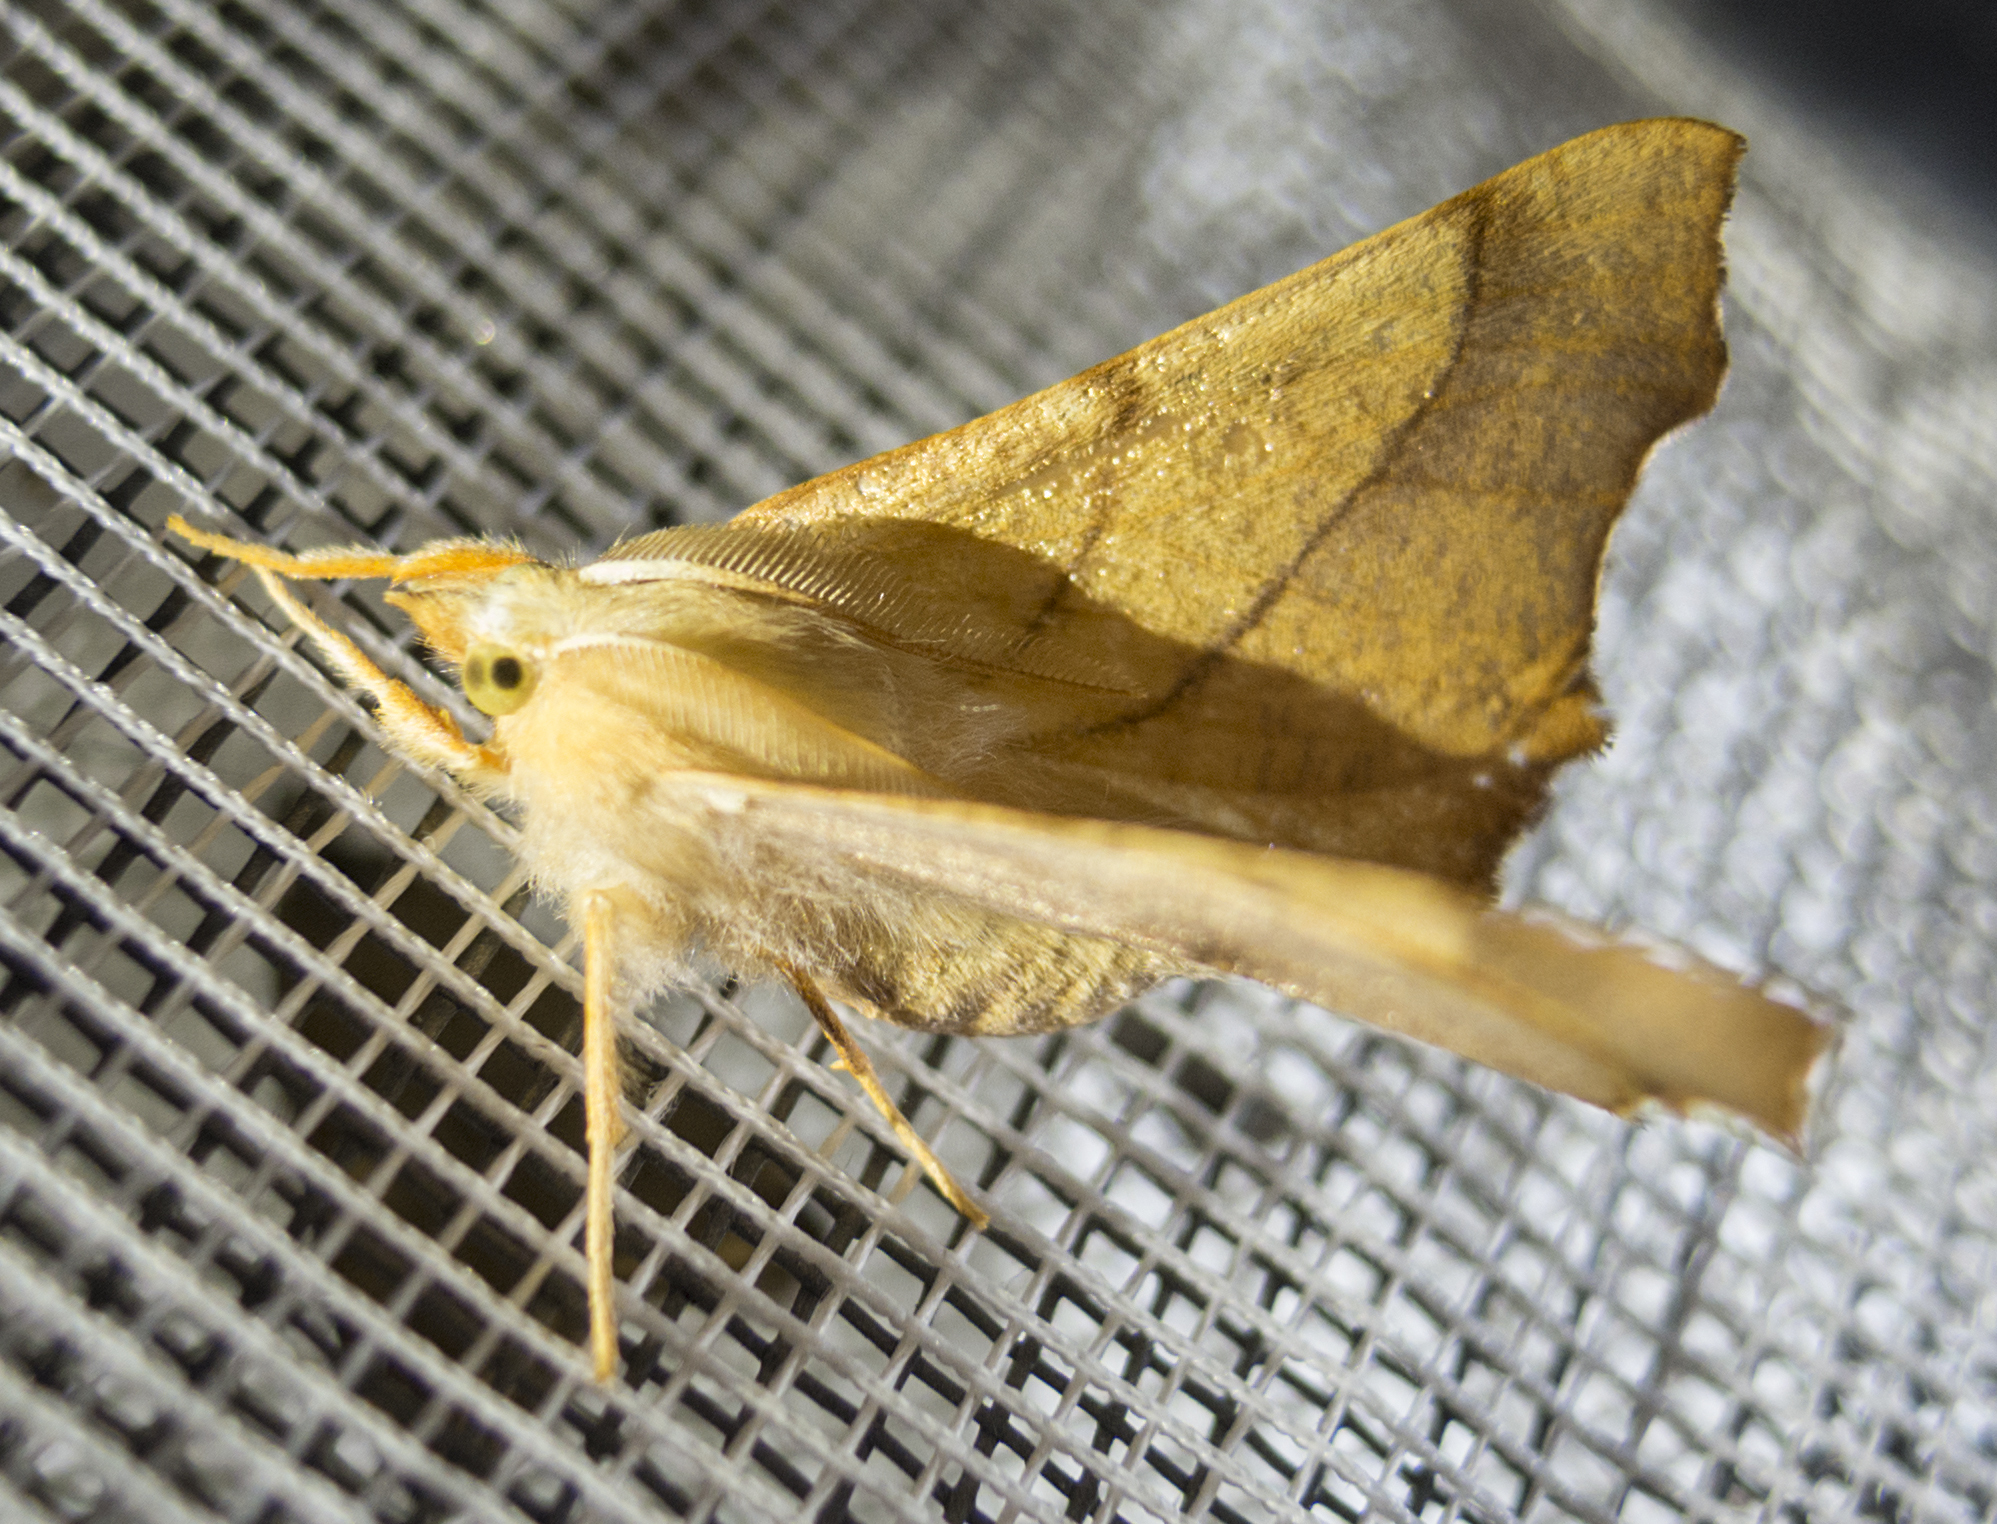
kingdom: Animalia
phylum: Arthropoda
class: Insecta
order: Lepidoptera
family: Geometridae
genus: Ennomos
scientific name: Ennomos fuscantaria
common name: Dusky thorn
